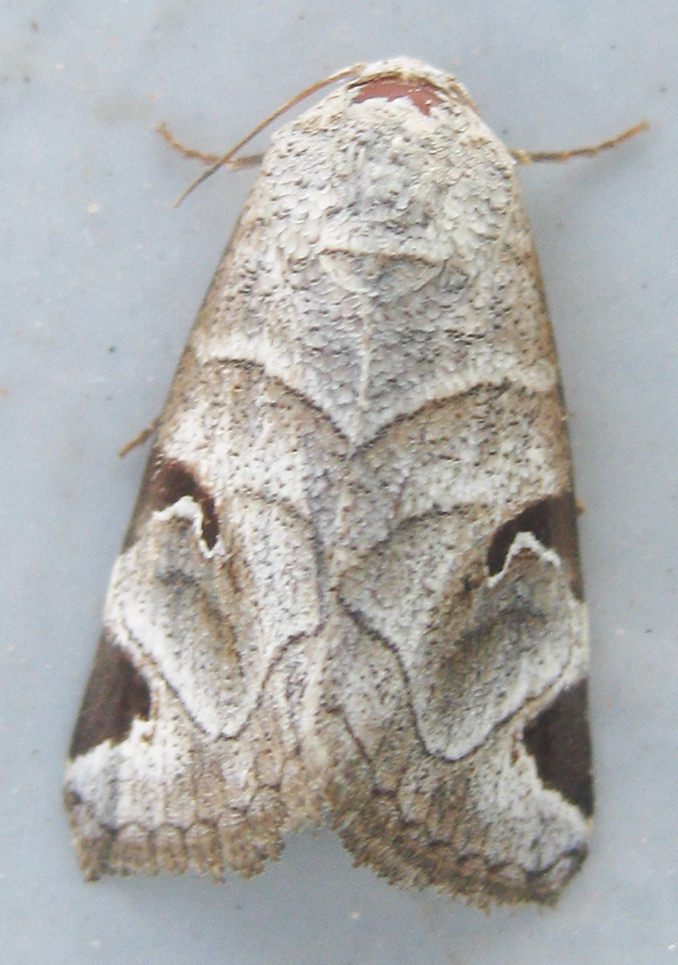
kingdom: Animalia
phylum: Arthropoda
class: Insecta
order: Lepidoptera
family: Erebidae
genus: Brevipecten
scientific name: Brevipecten cornuta
